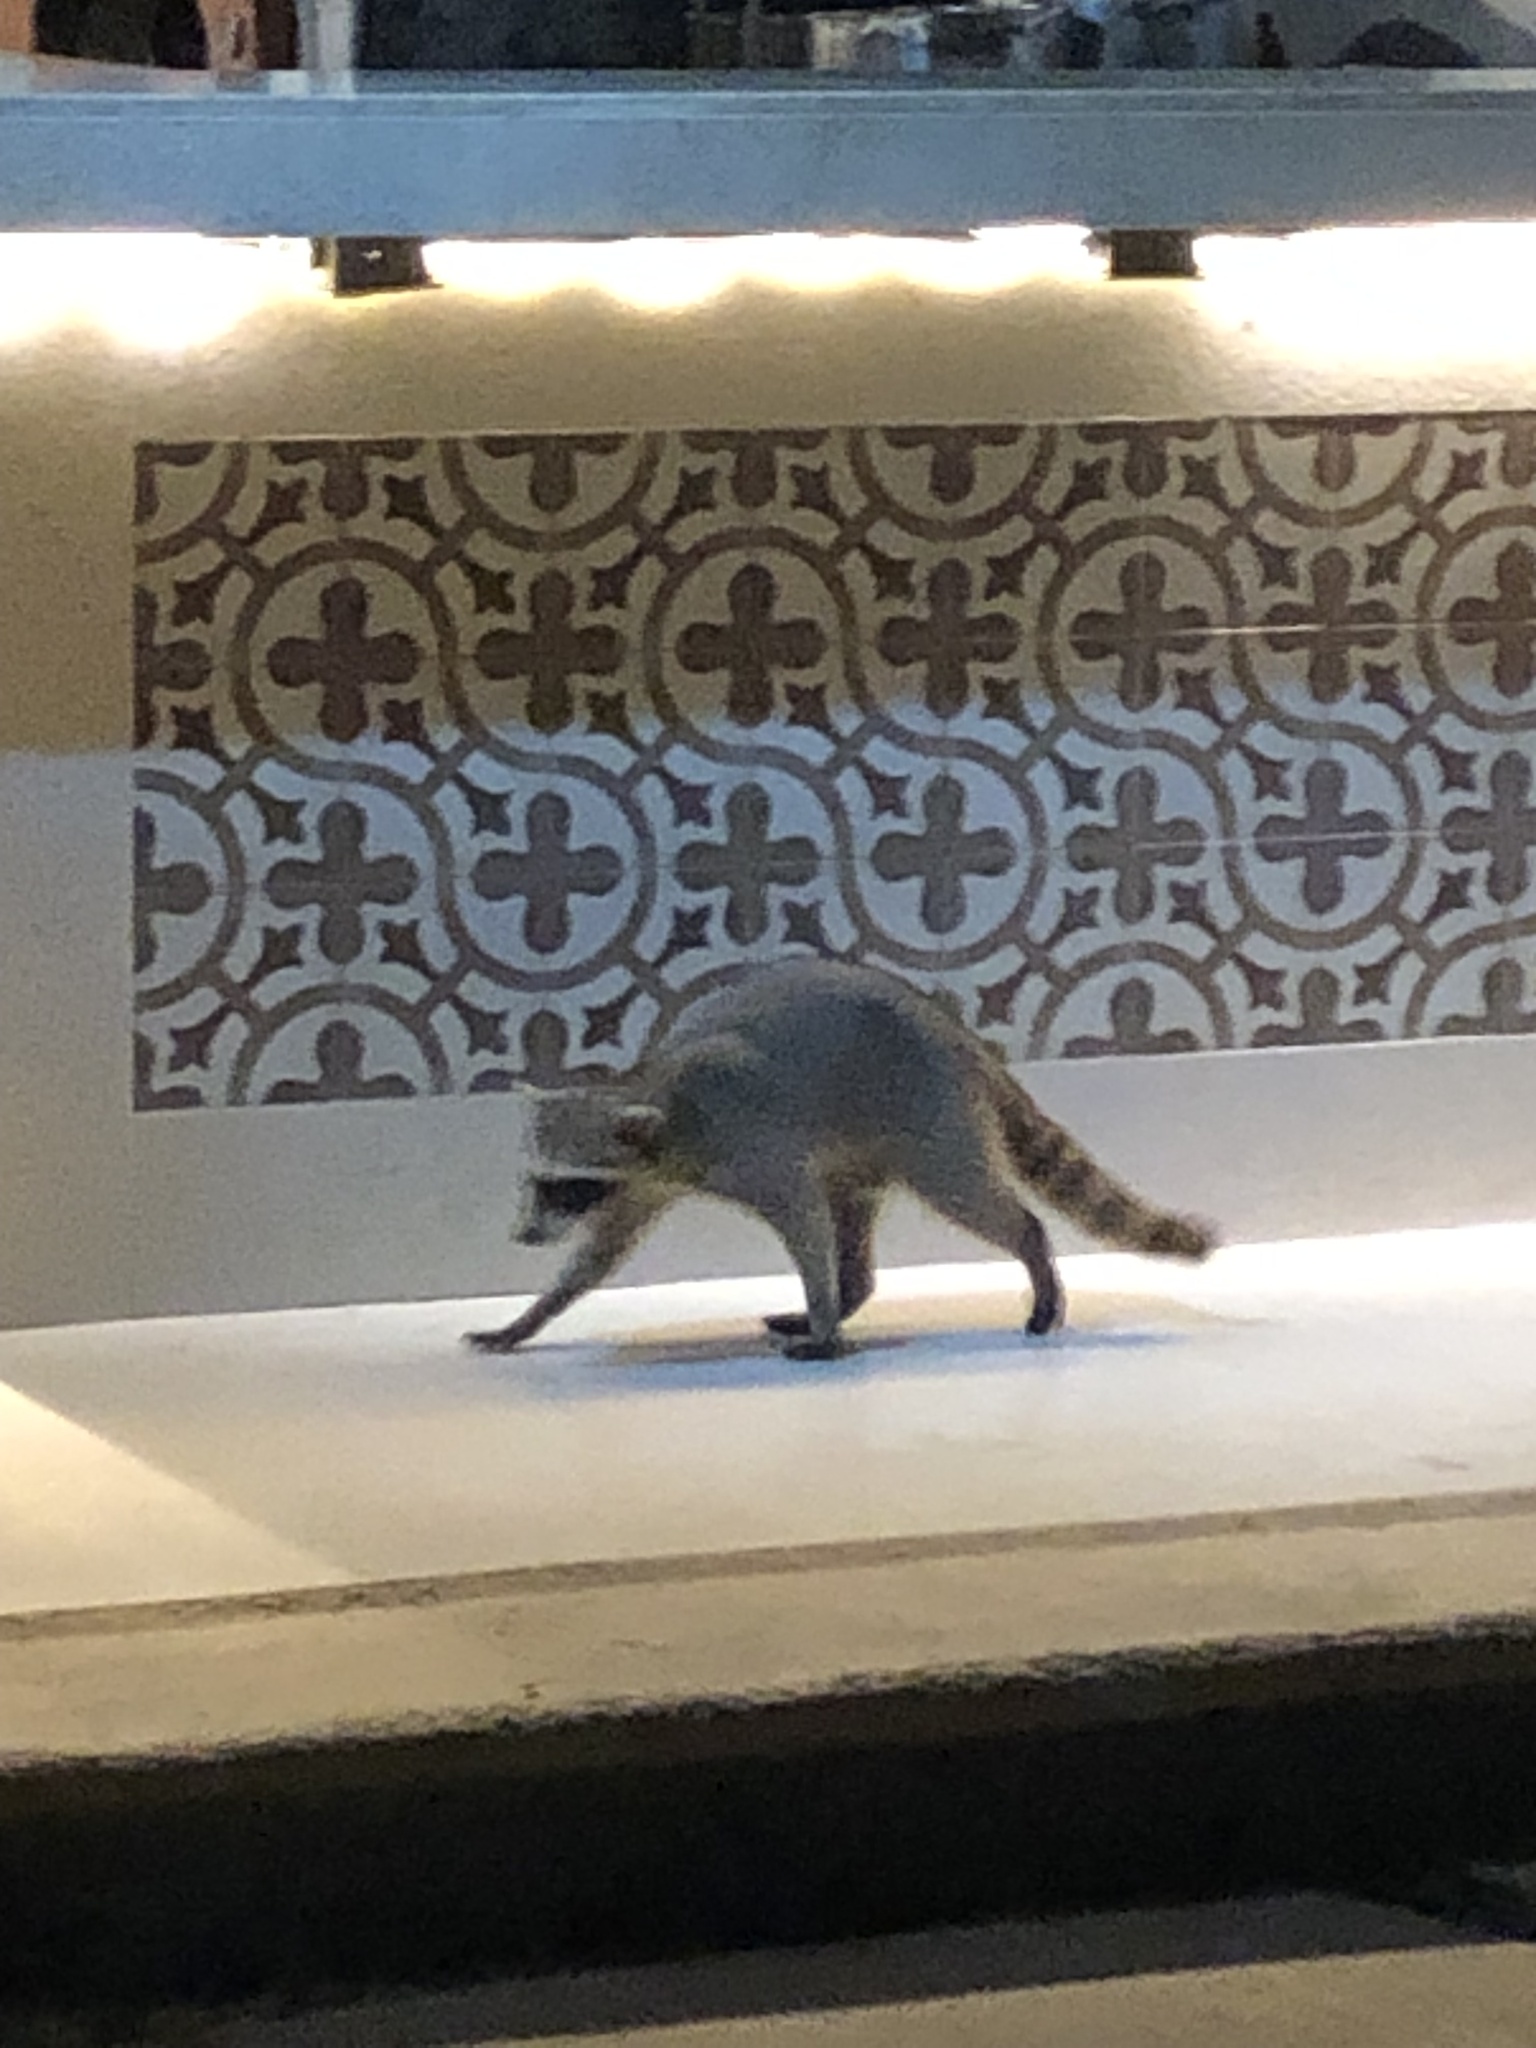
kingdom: Animalia
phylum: Chordata
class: Mammalia
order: Carnivora
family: Procyonidae
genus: Procyon
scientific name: Procyon lotor
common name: Raccoon
